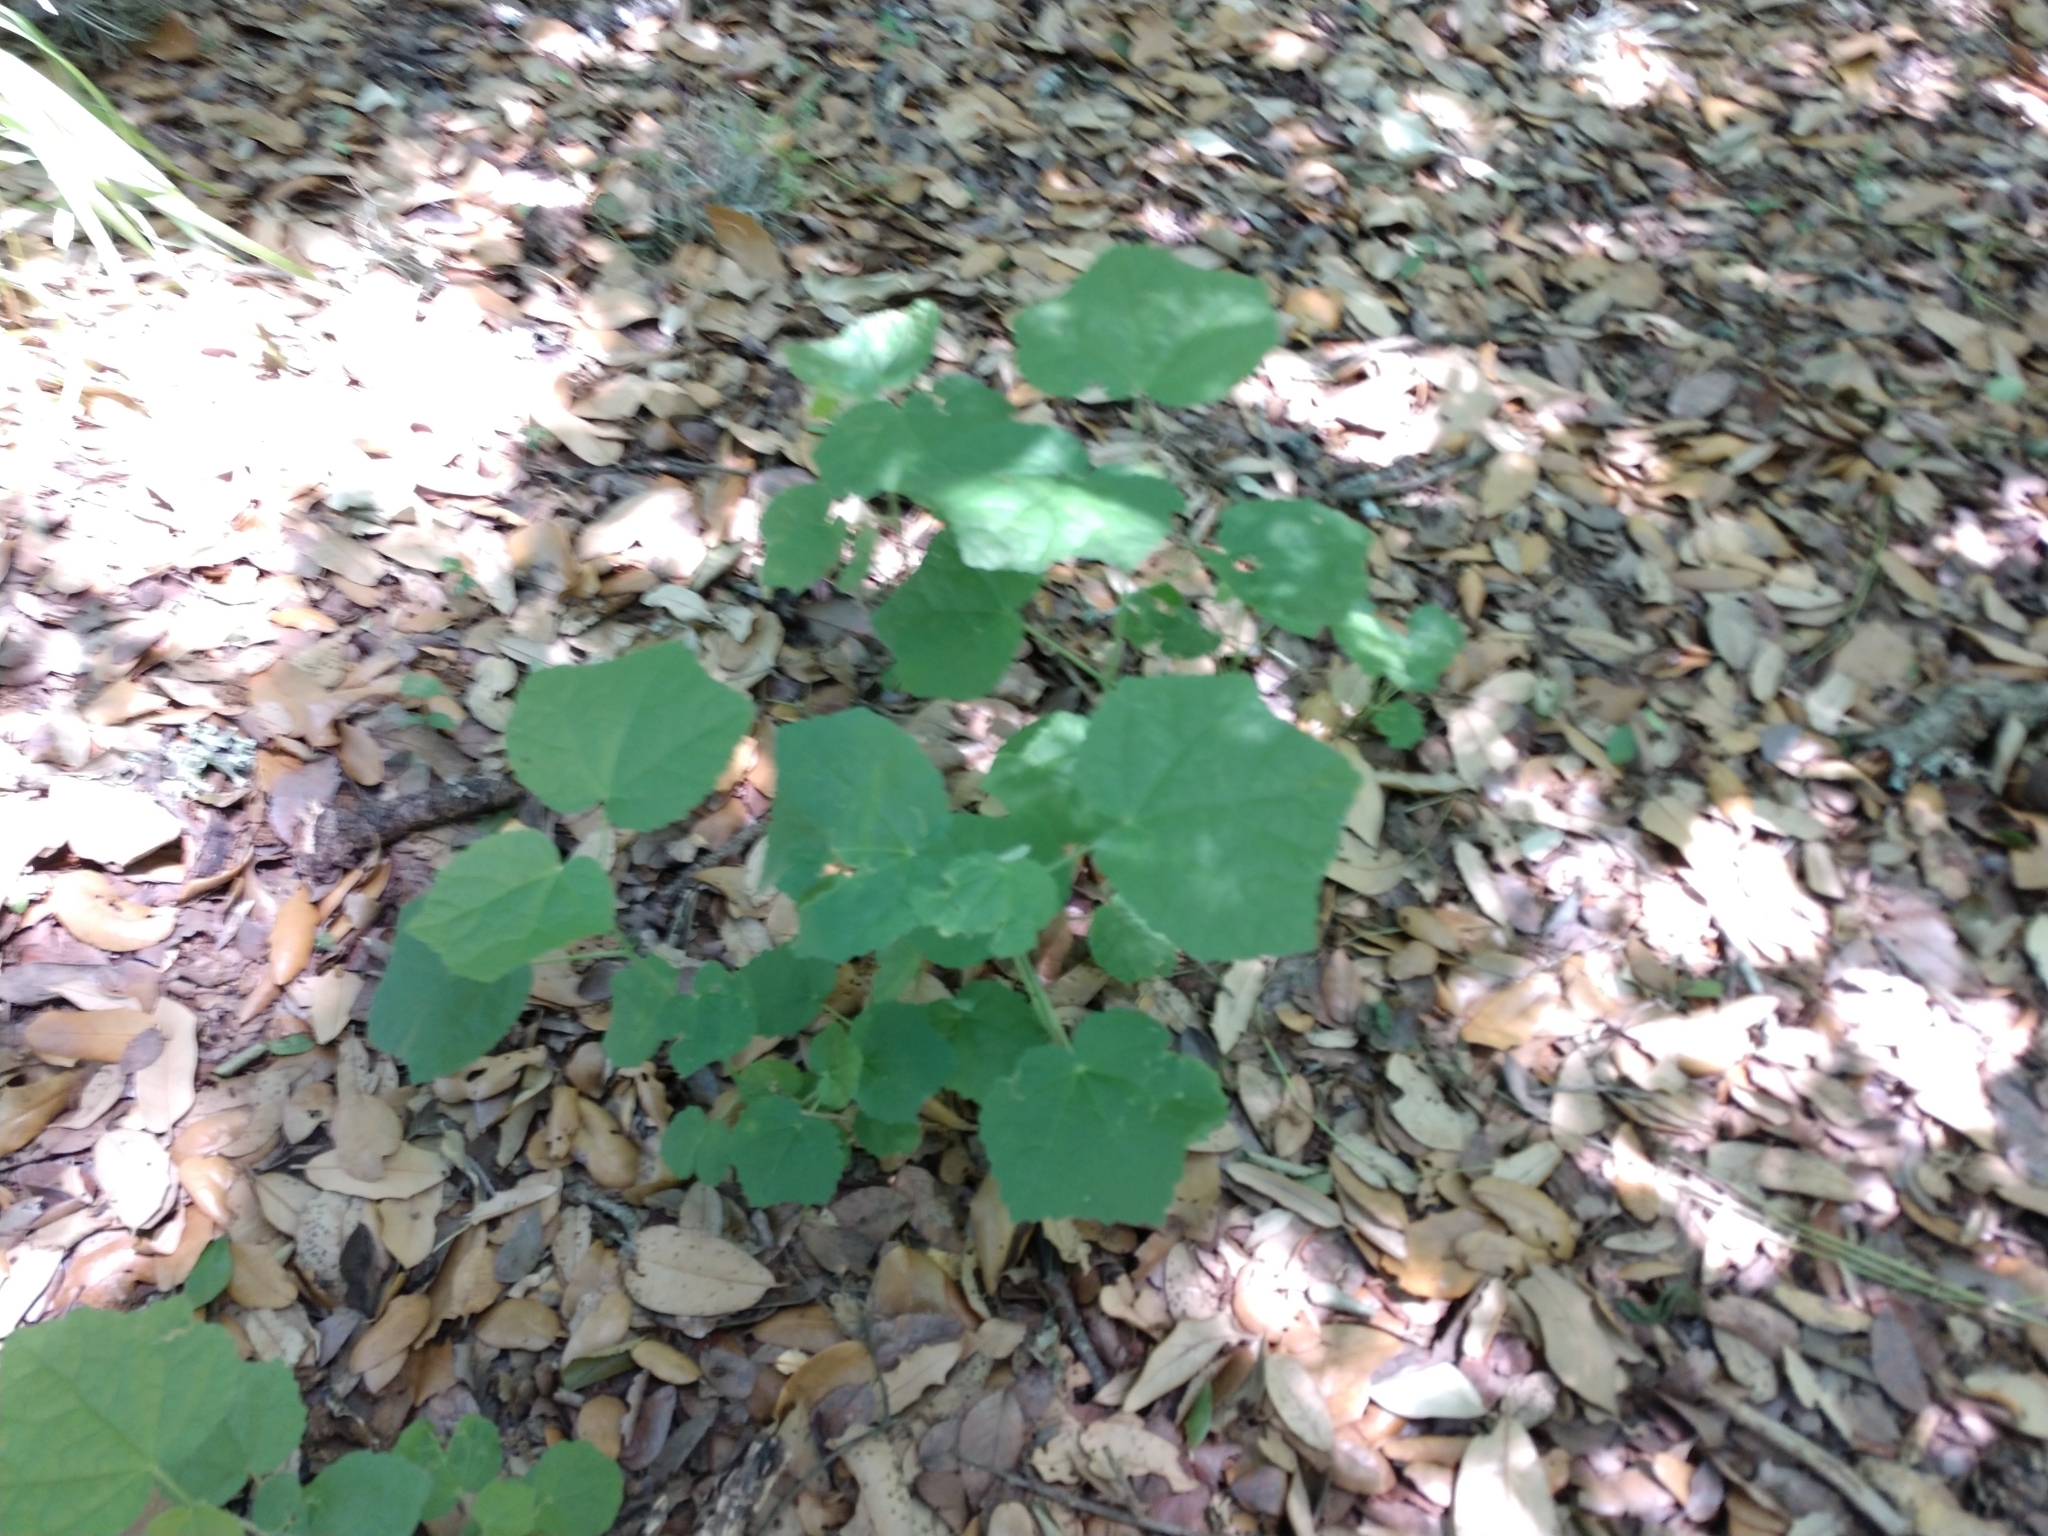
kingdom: Plantae
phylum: Tracheophyta
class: Magnoliopsida
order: Malvales
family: Malvaceae
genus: Malvaviscus
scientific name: Malvaviscus arboreus
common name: Wax mallow
